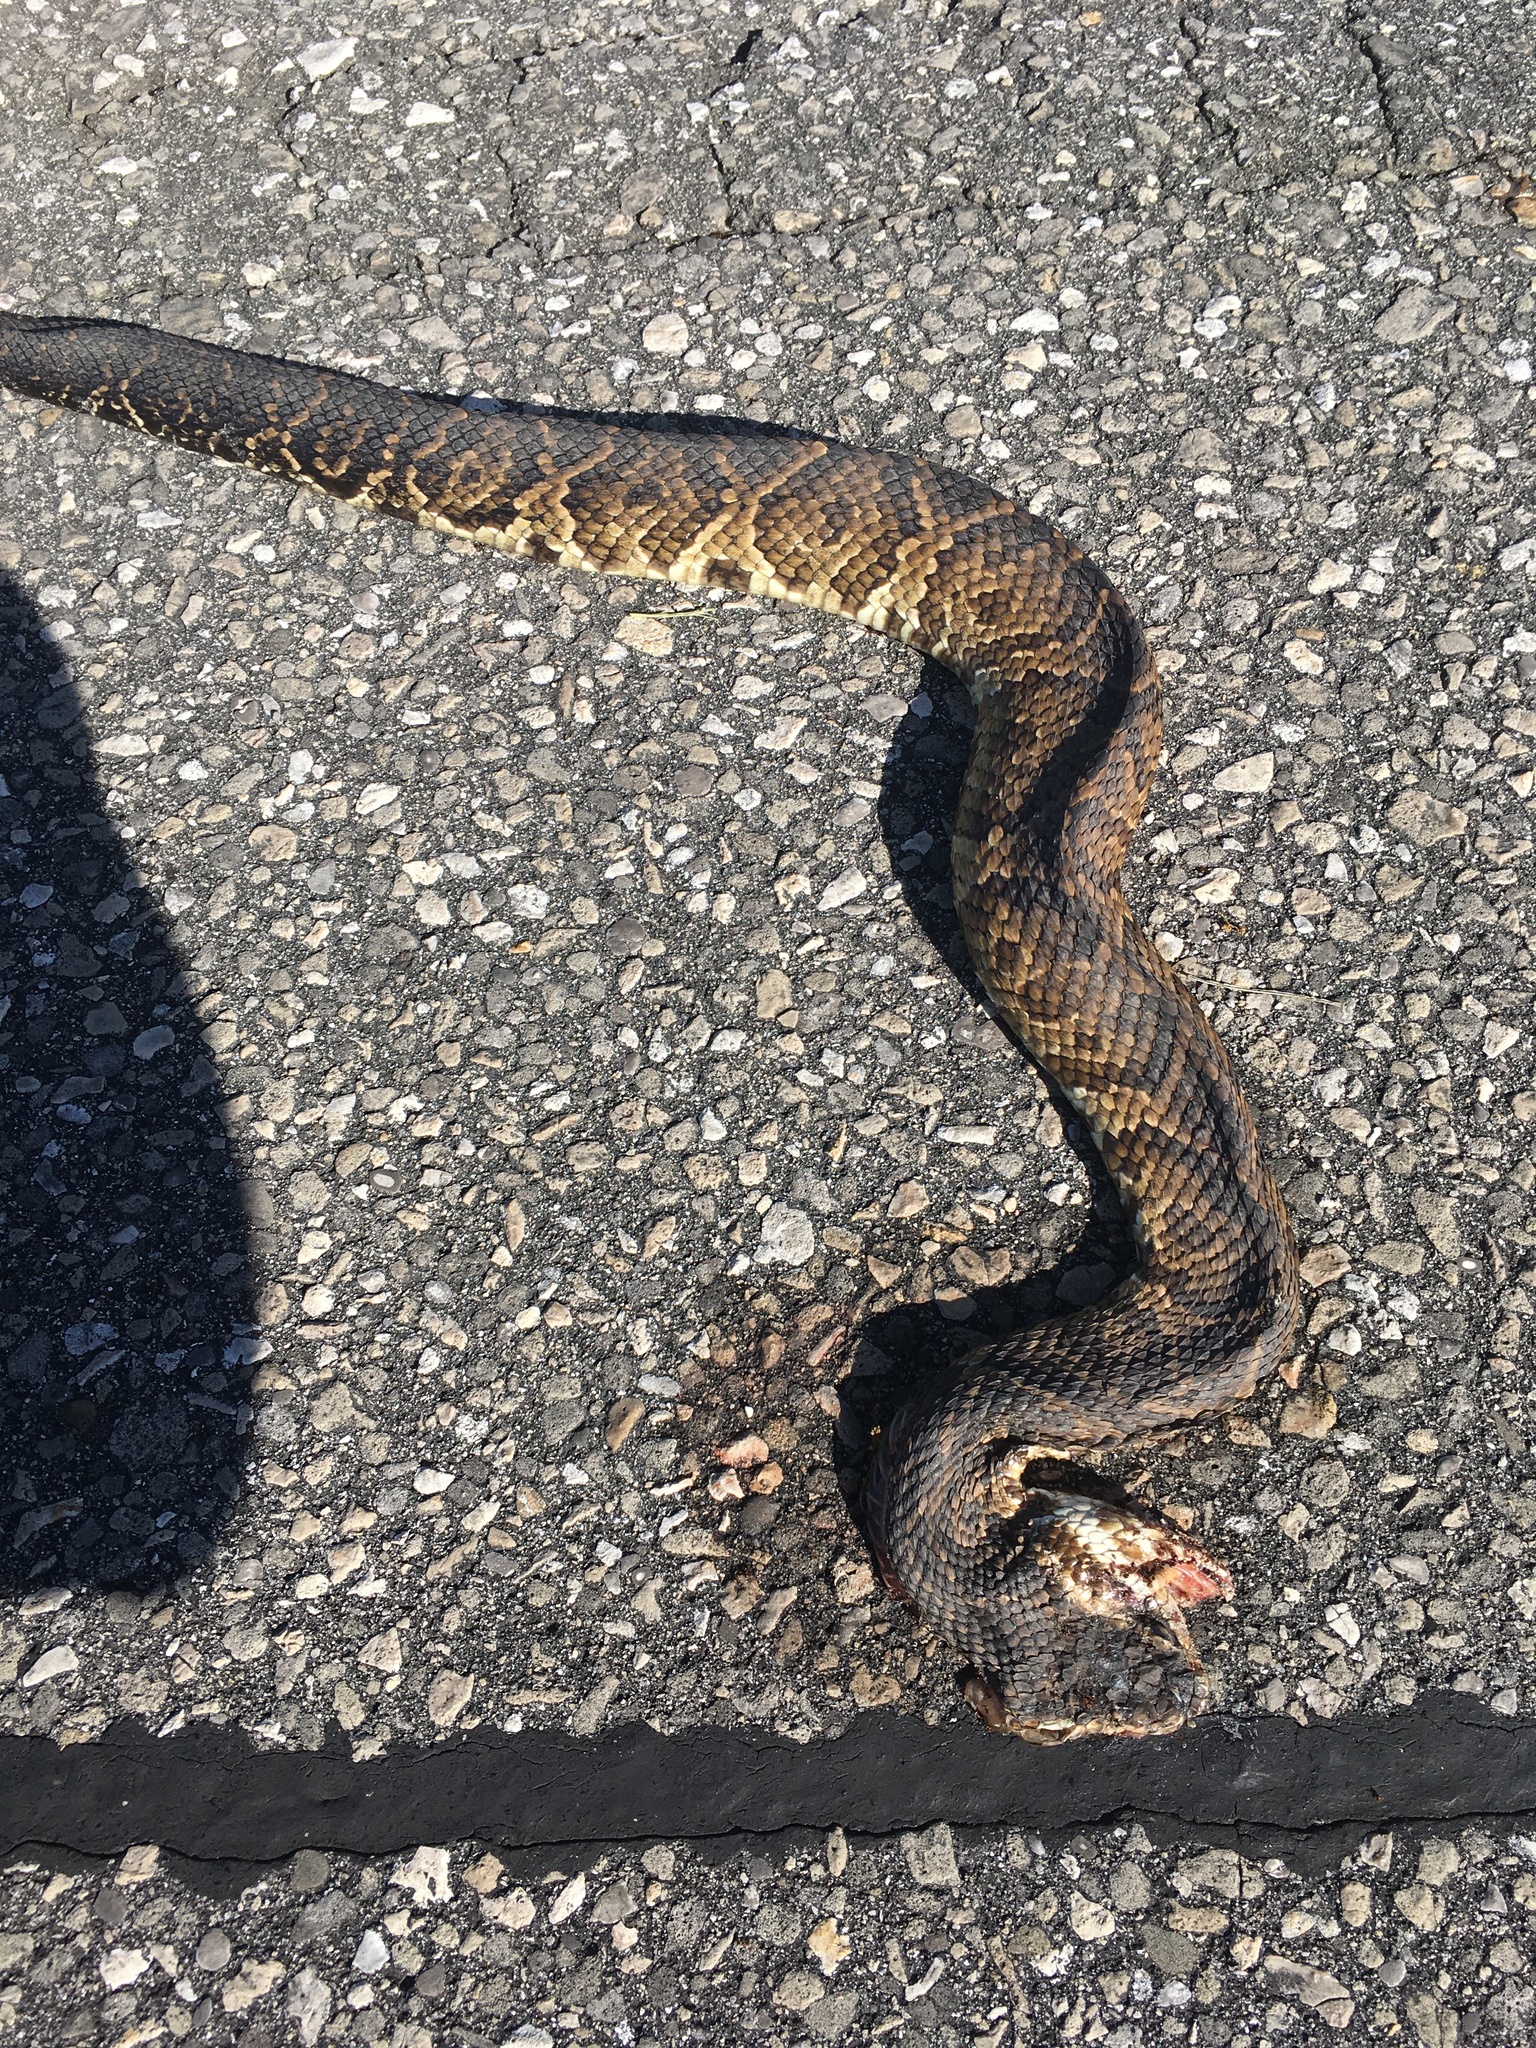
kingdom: Animalia
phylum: Chordata
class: Squamata
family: Viperidae
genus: Agkistrodon
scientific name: Agkistrodon
